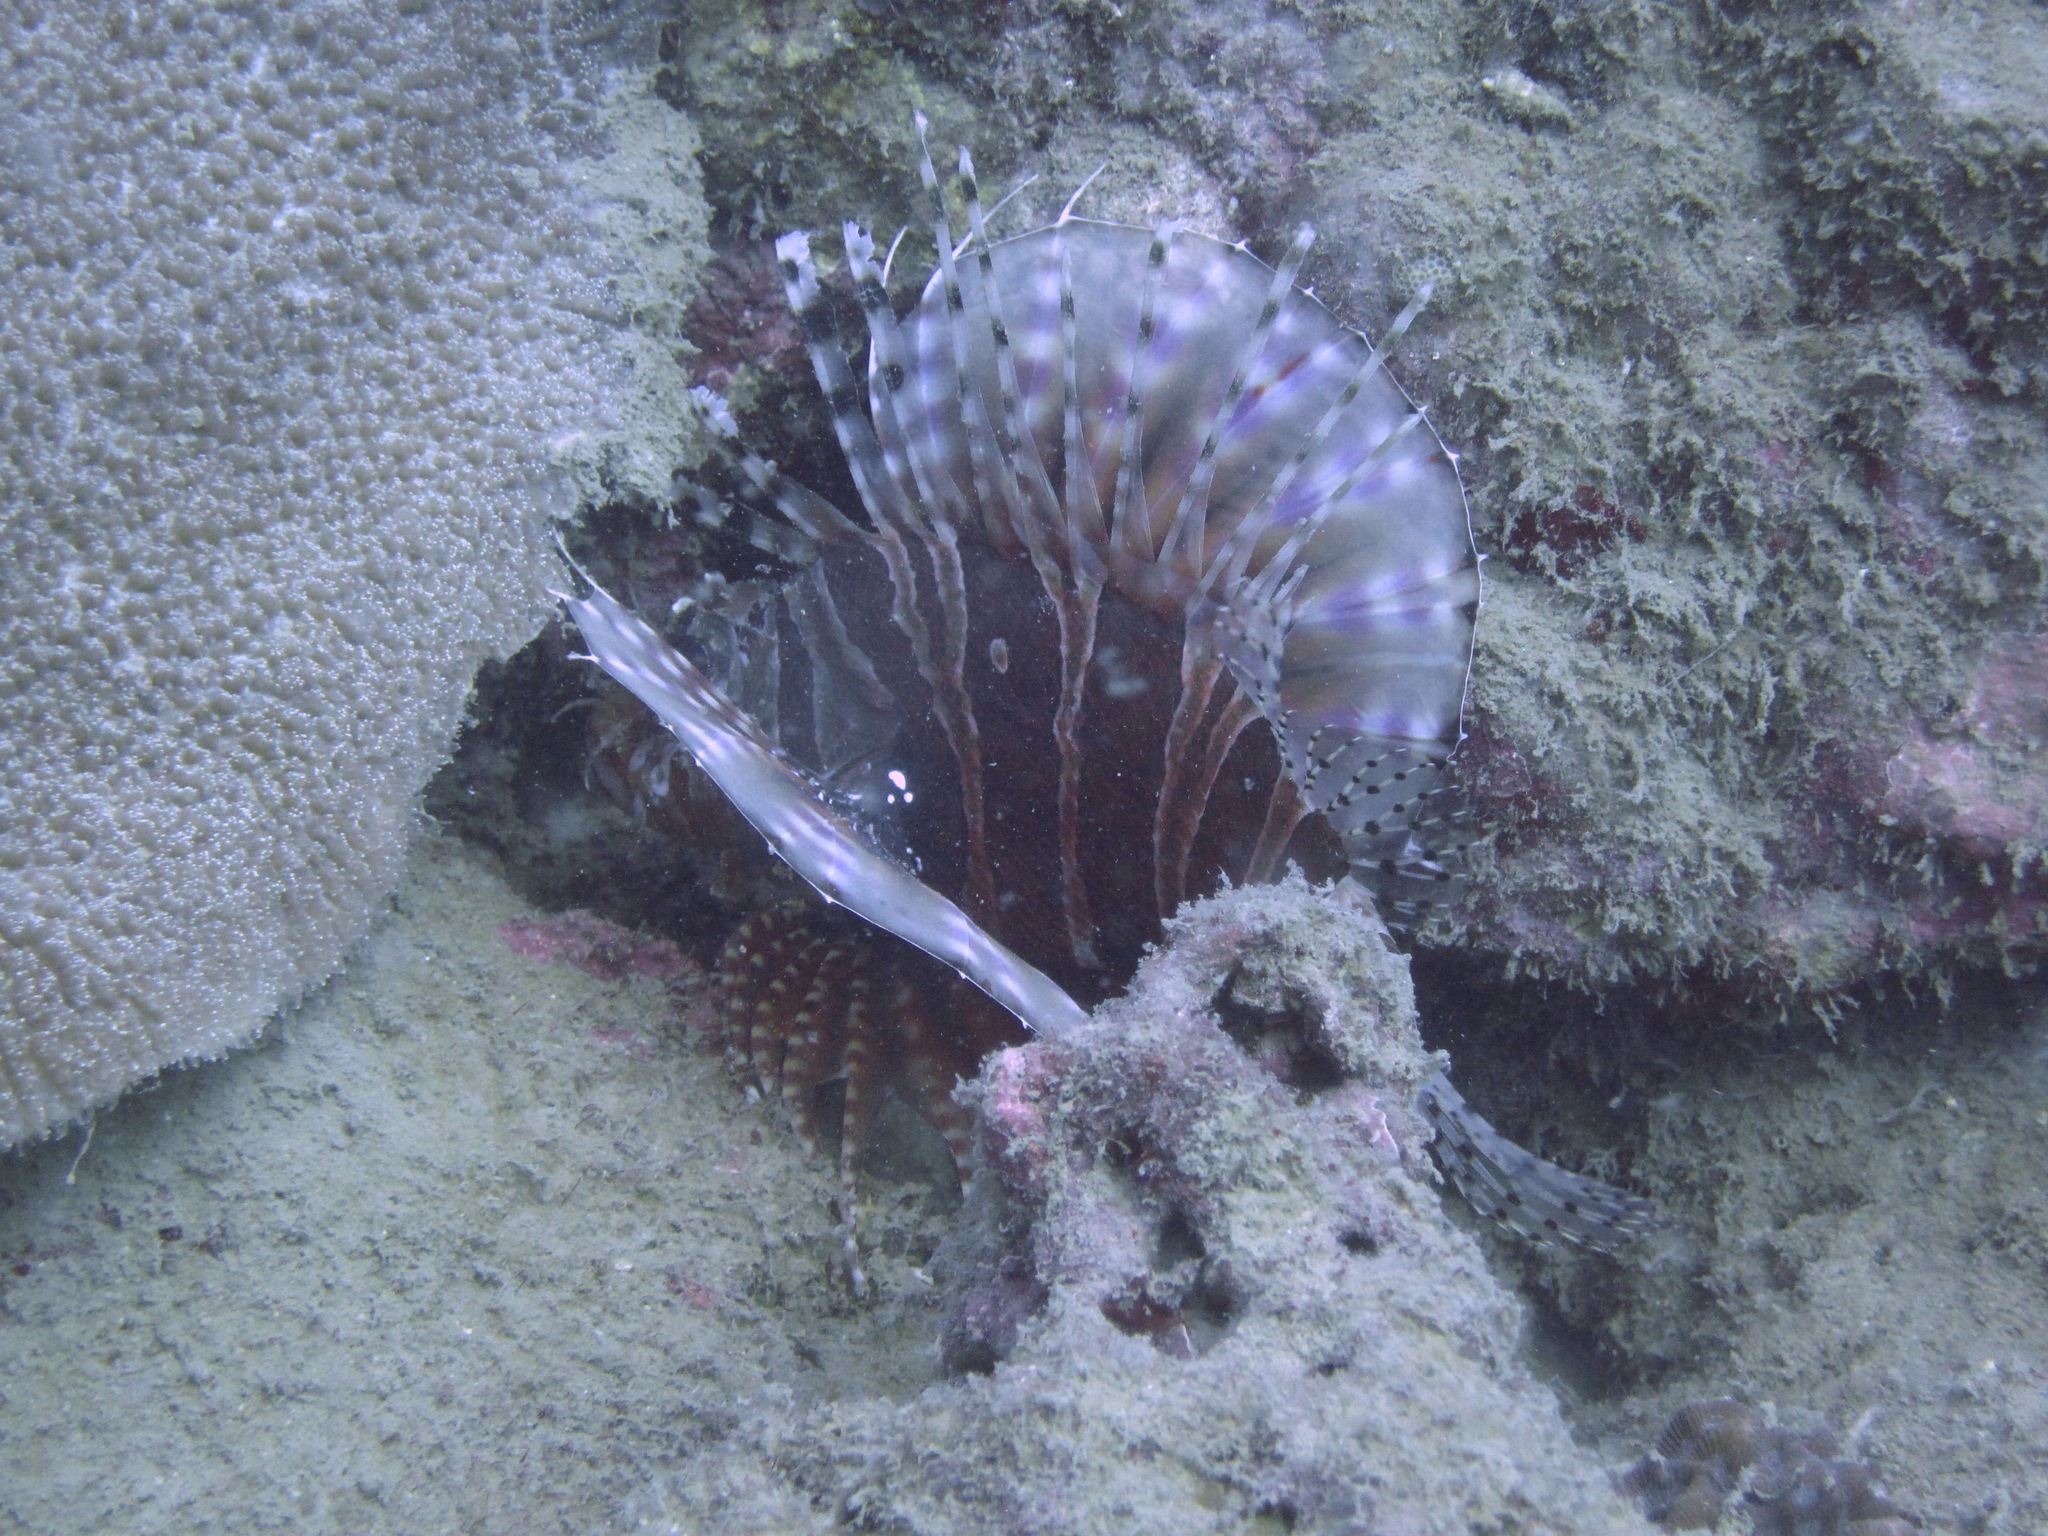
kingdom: Animalia
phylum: Chordata
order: Scorpaeniformes
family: Scorpaenidae
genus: Dendrochirus
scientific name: Dendrochirus zebra
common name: Zebra lionfish
